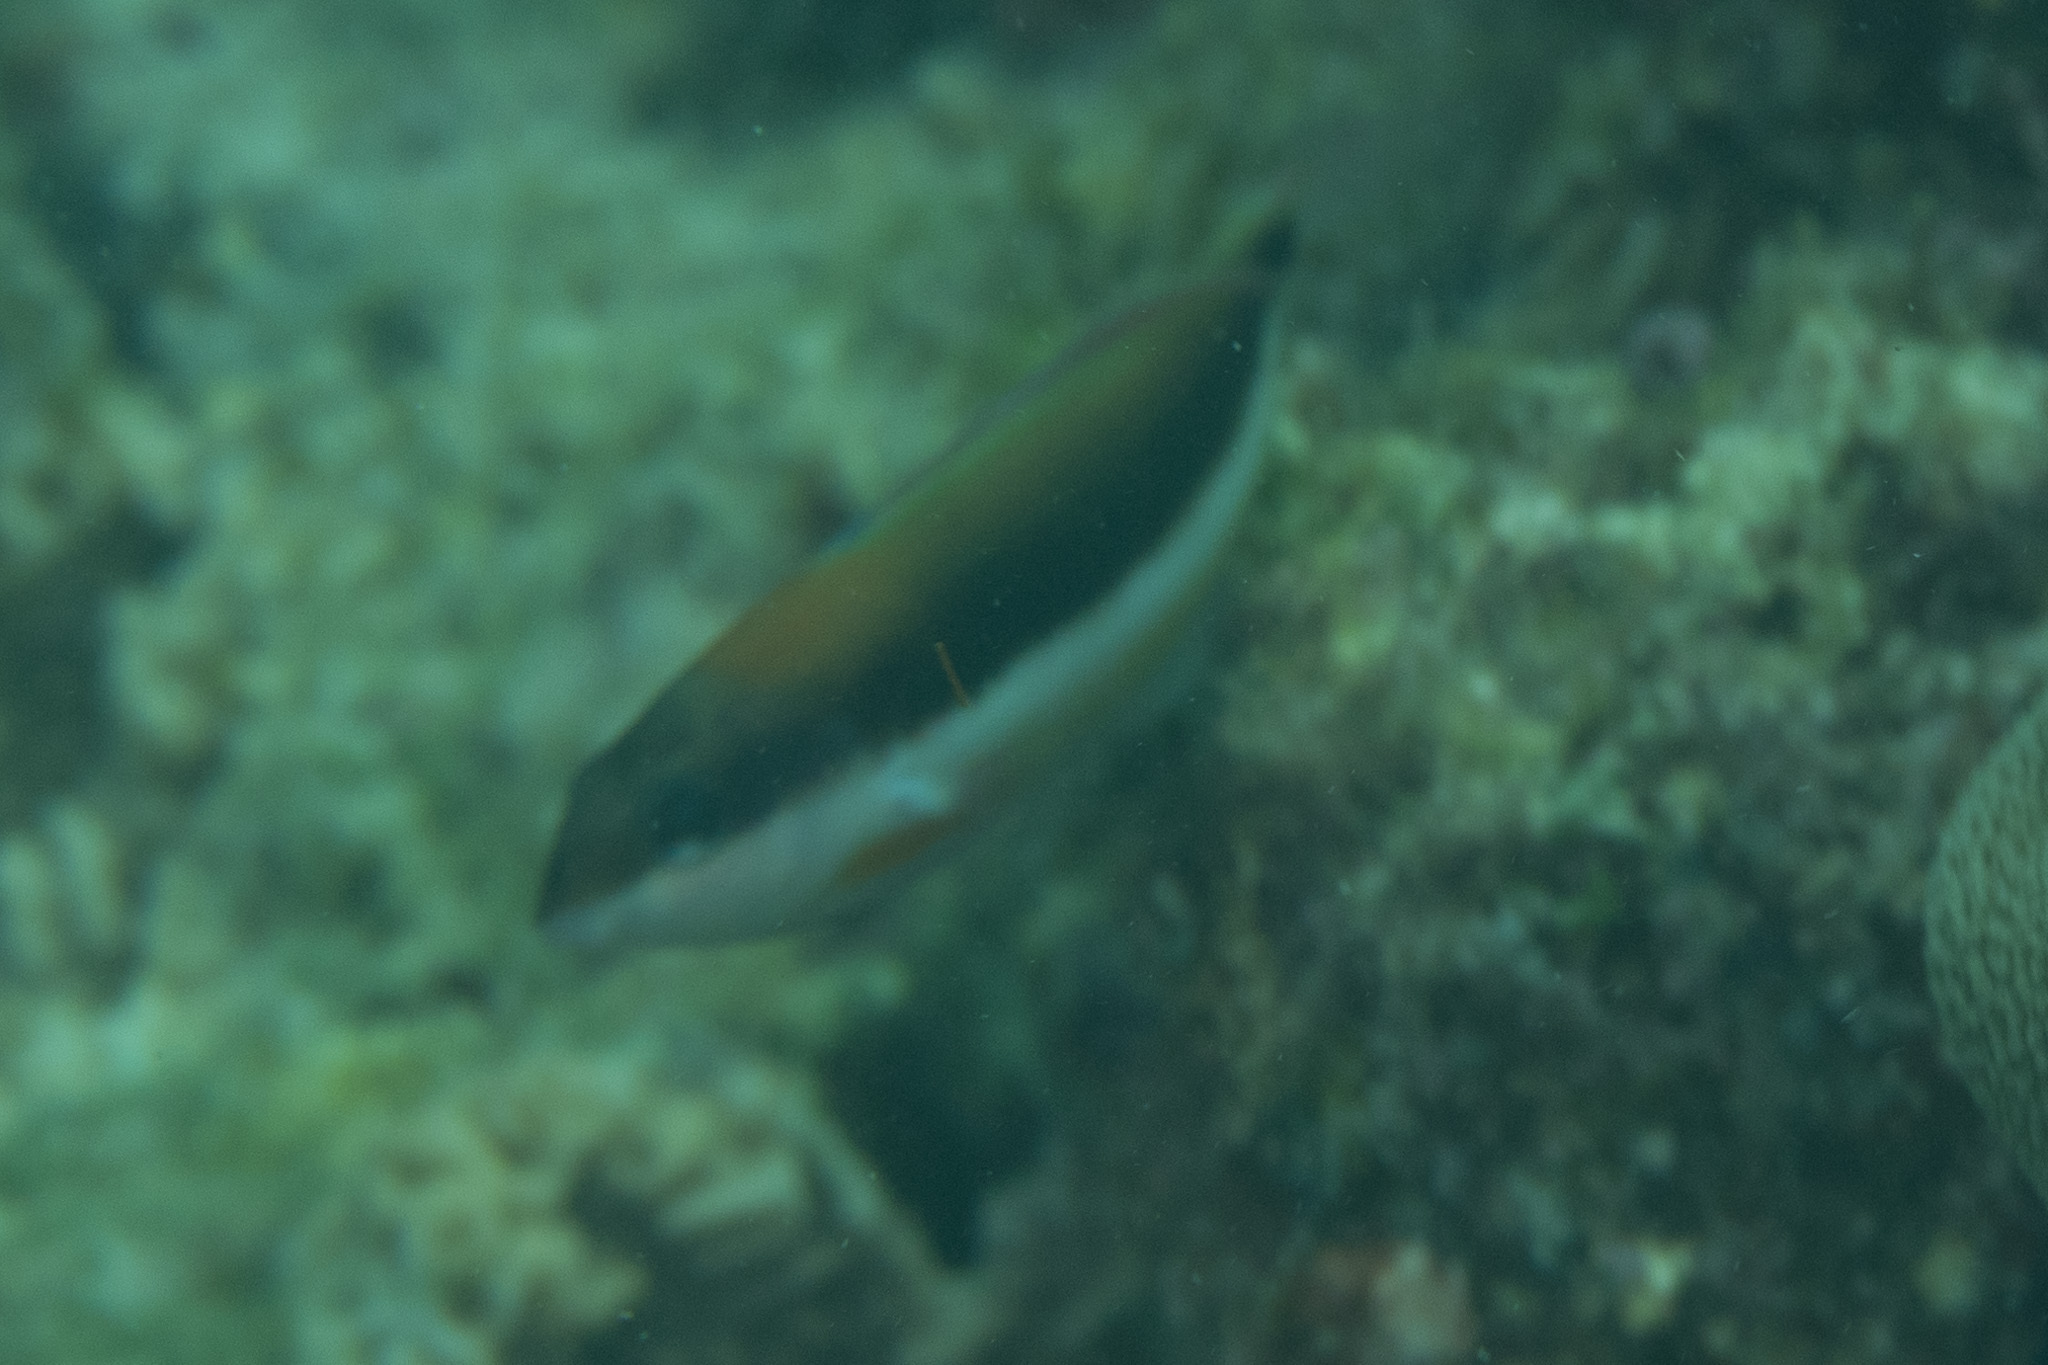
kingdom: Animalia
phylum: Chordata
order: Perciformes
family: Labridae
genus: Thalassoma
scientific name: Thalassoma duperrey
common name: Saddle wrasse
